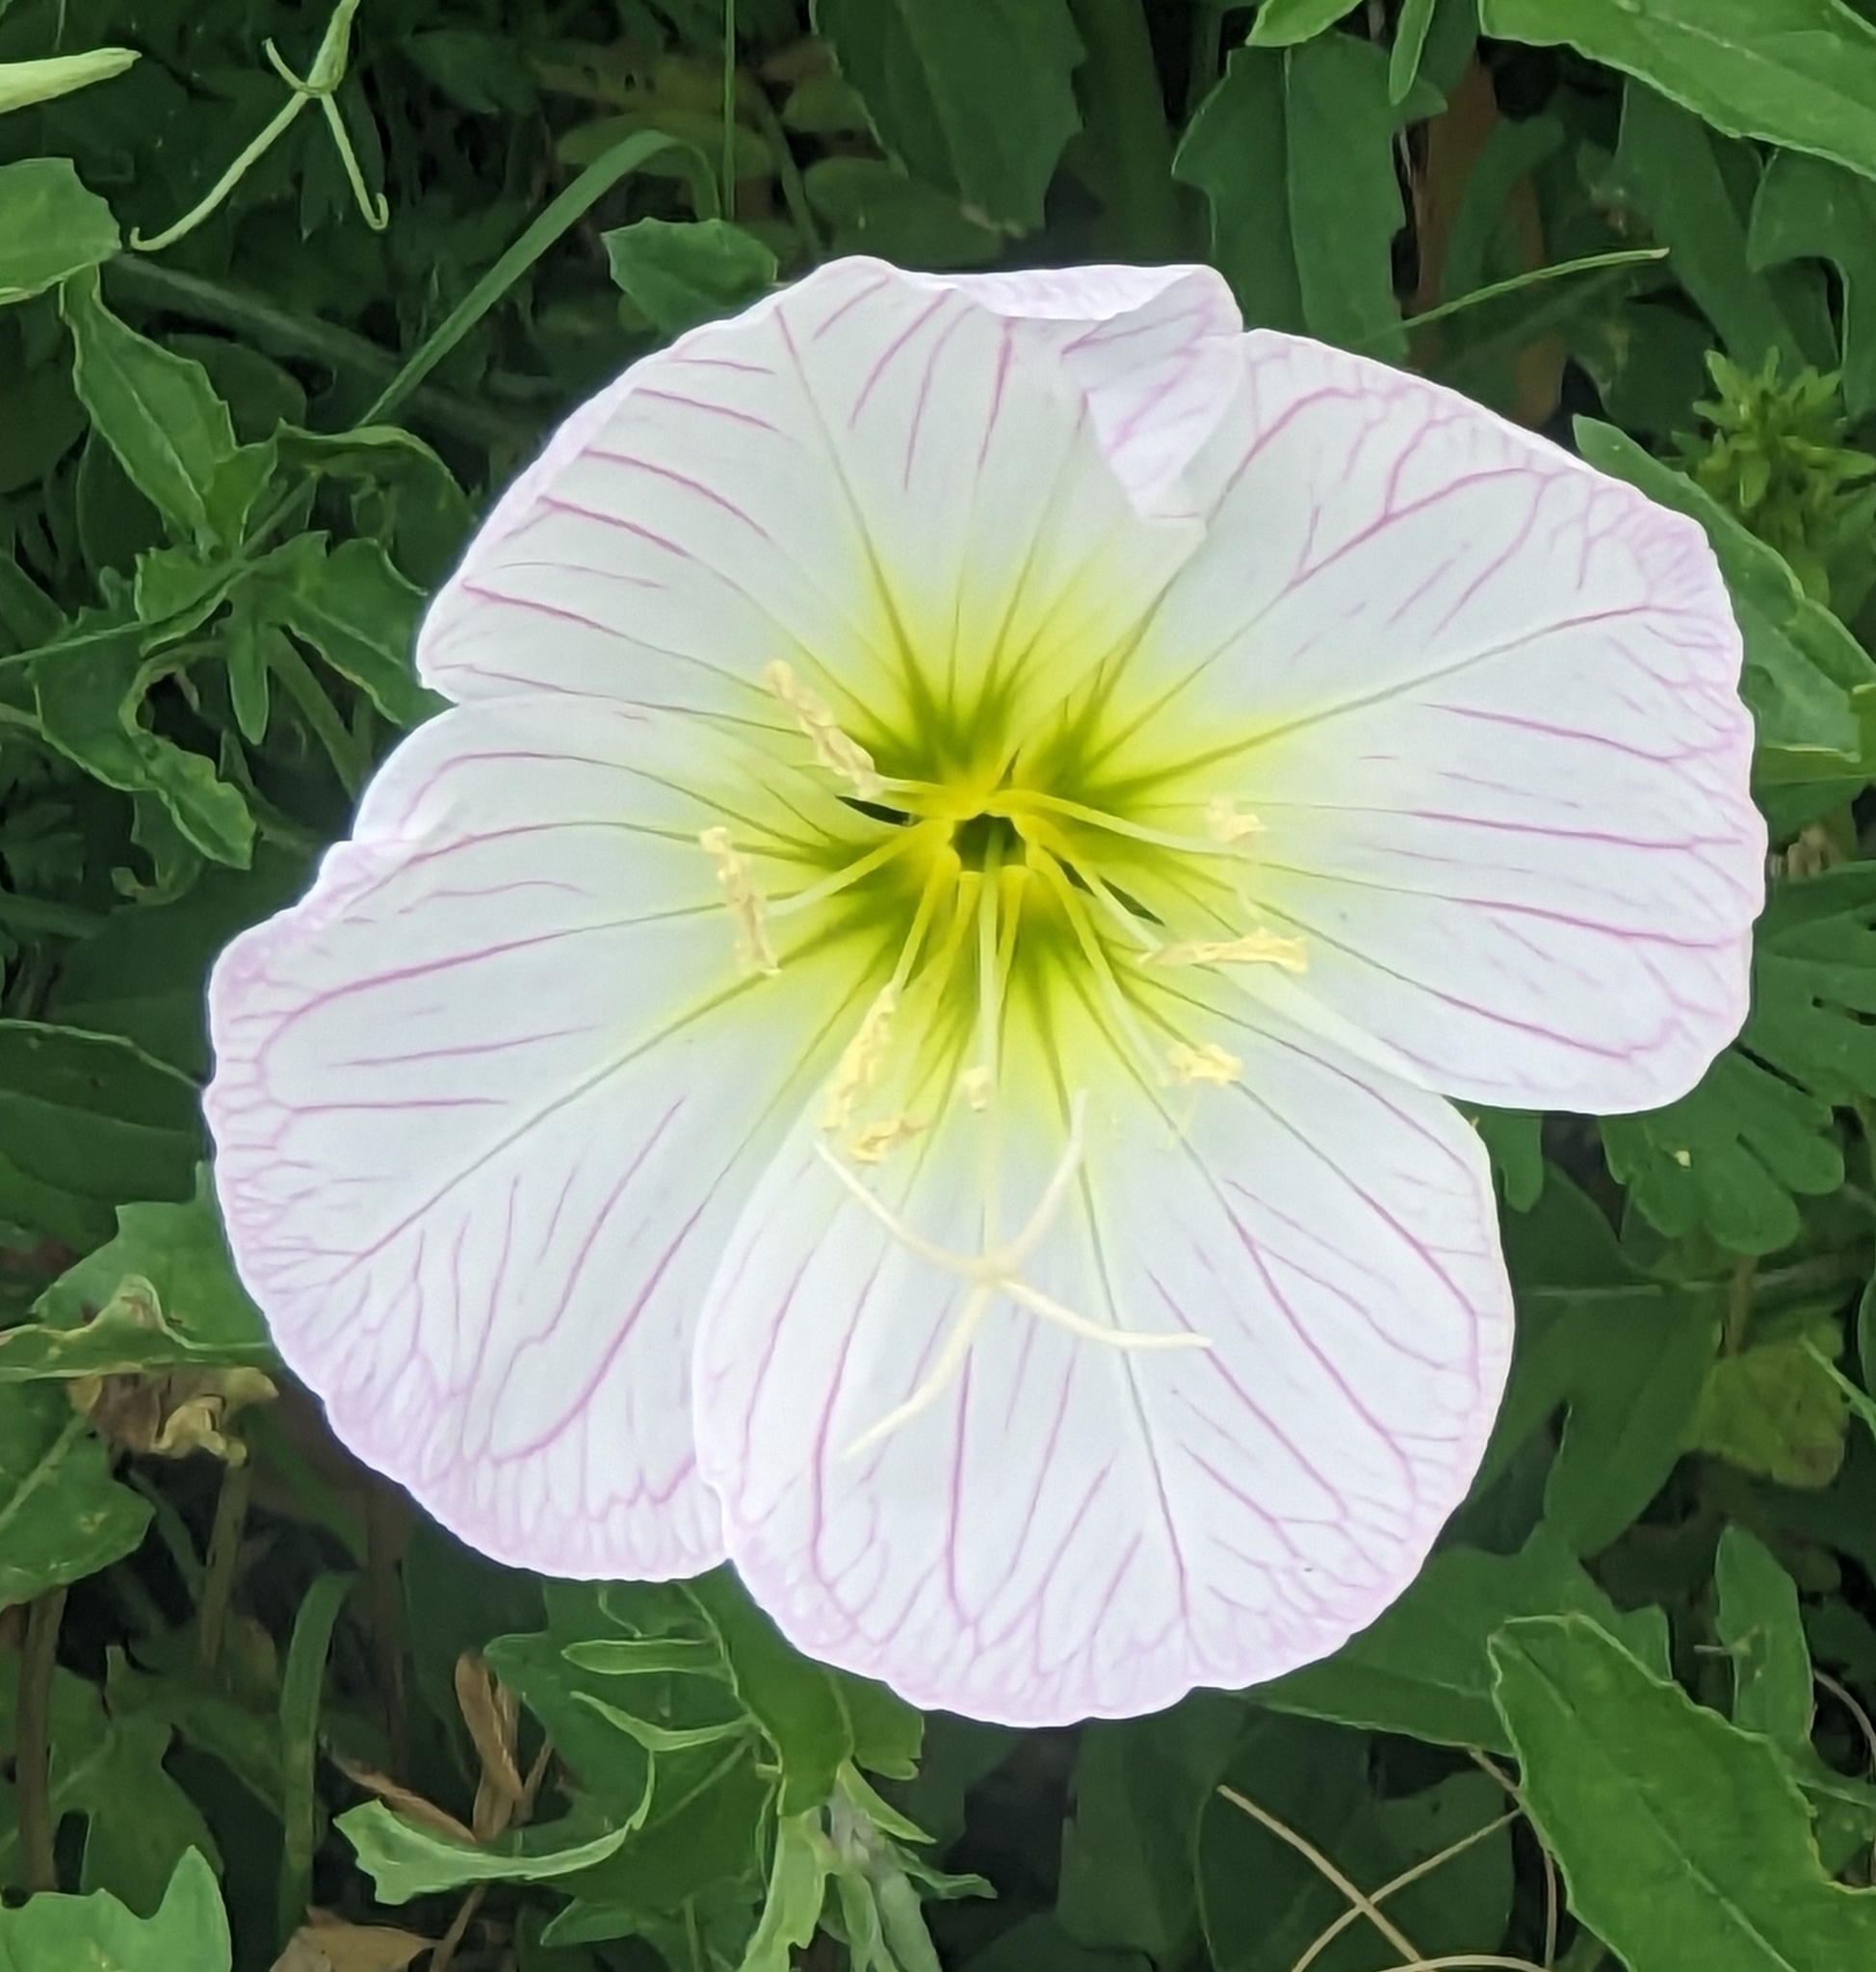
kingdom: Plantae
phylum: Tracheophyta
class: Magnoliopsida
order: Myrtales
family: Onagraceae
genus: Oenothera
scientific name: Oenothera speciosa
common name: White evening-primrose
